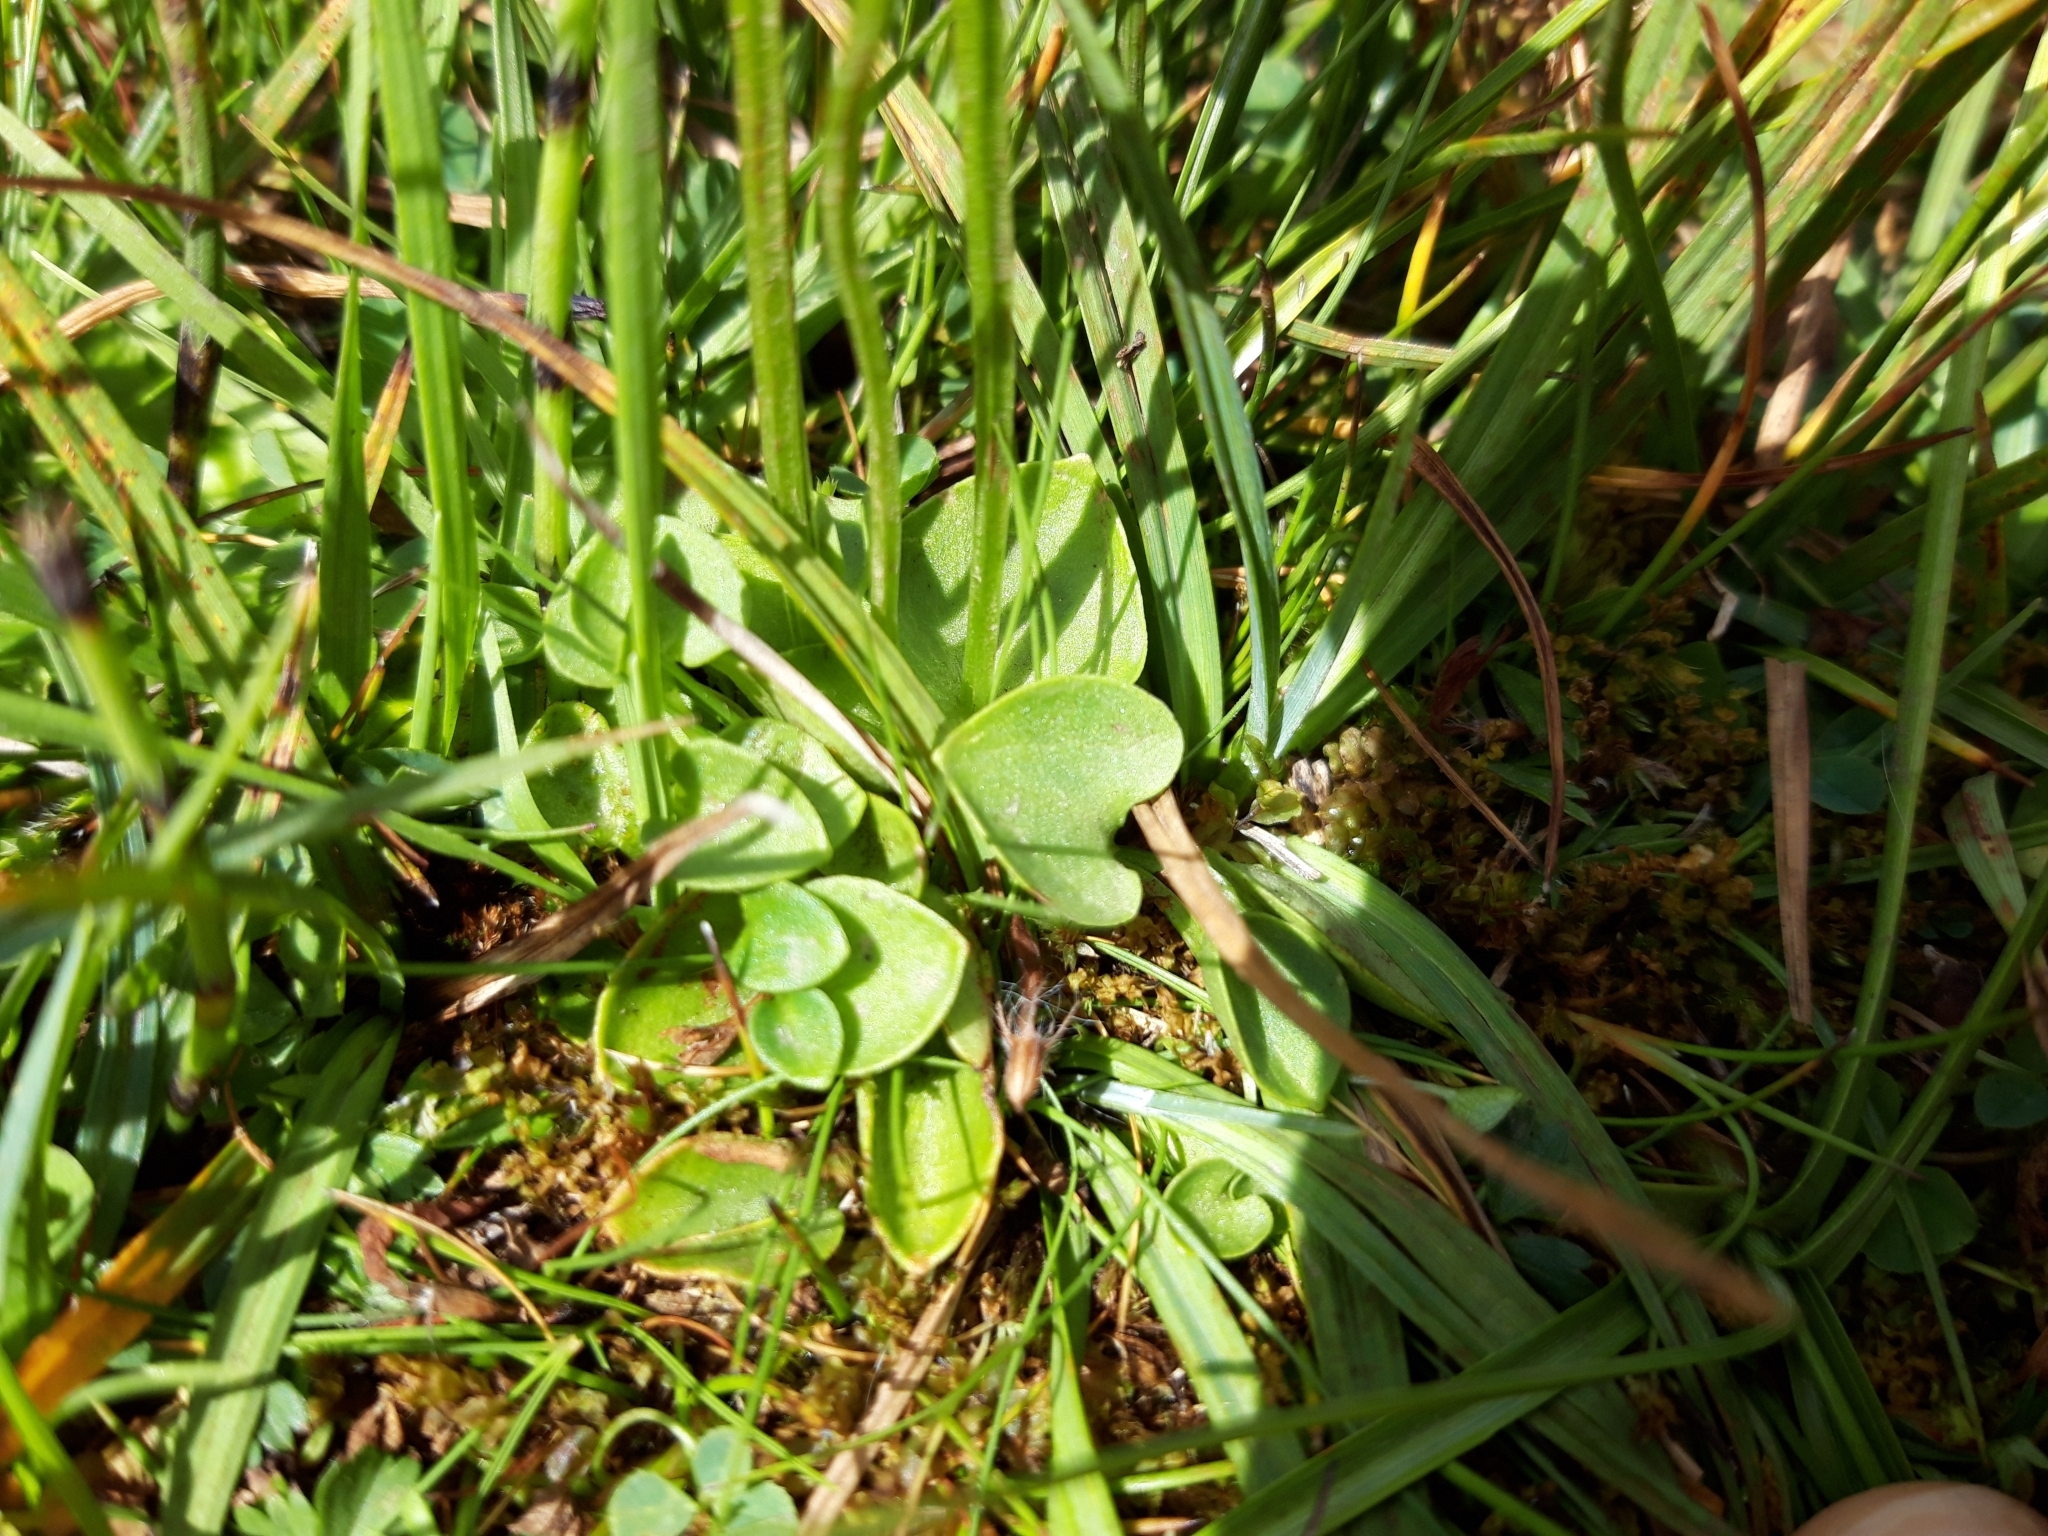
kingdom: Plantae
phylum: Tracheophyta
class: Magnoliopsida
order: Celastrales
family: Parnassiaceae
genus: Parnassia
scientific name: Parnassia palustris
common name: Grass-of-parnassus
